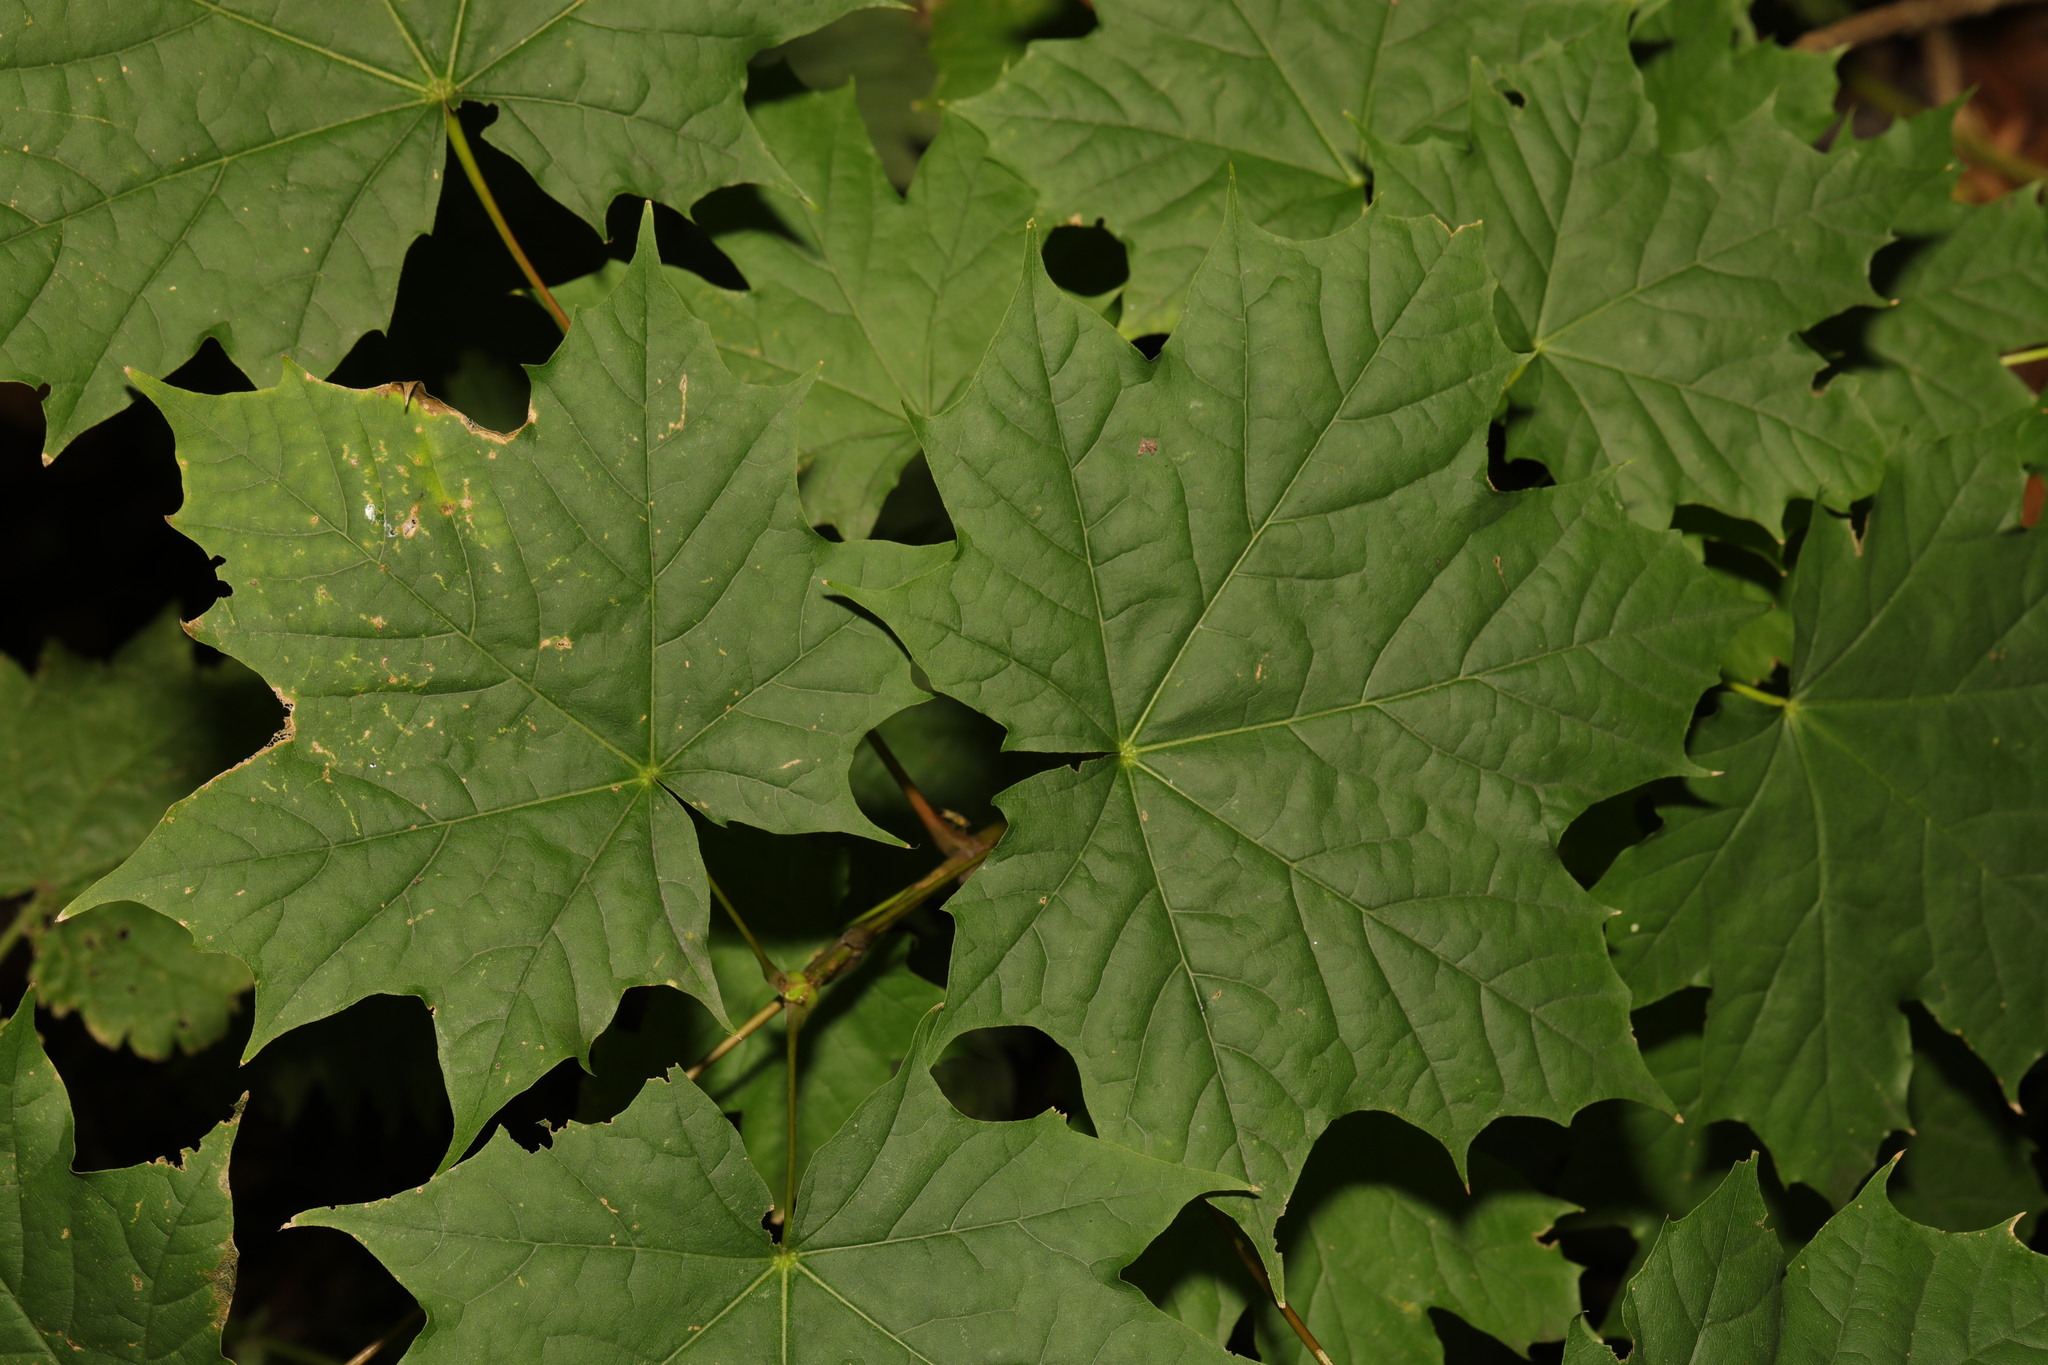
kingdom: Plantae
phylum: Tracheophyta
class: Magnoliopsida
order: Sapindales
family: Sapindaceae
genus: Acer
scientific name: Acer platanoides
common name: Norway maple
